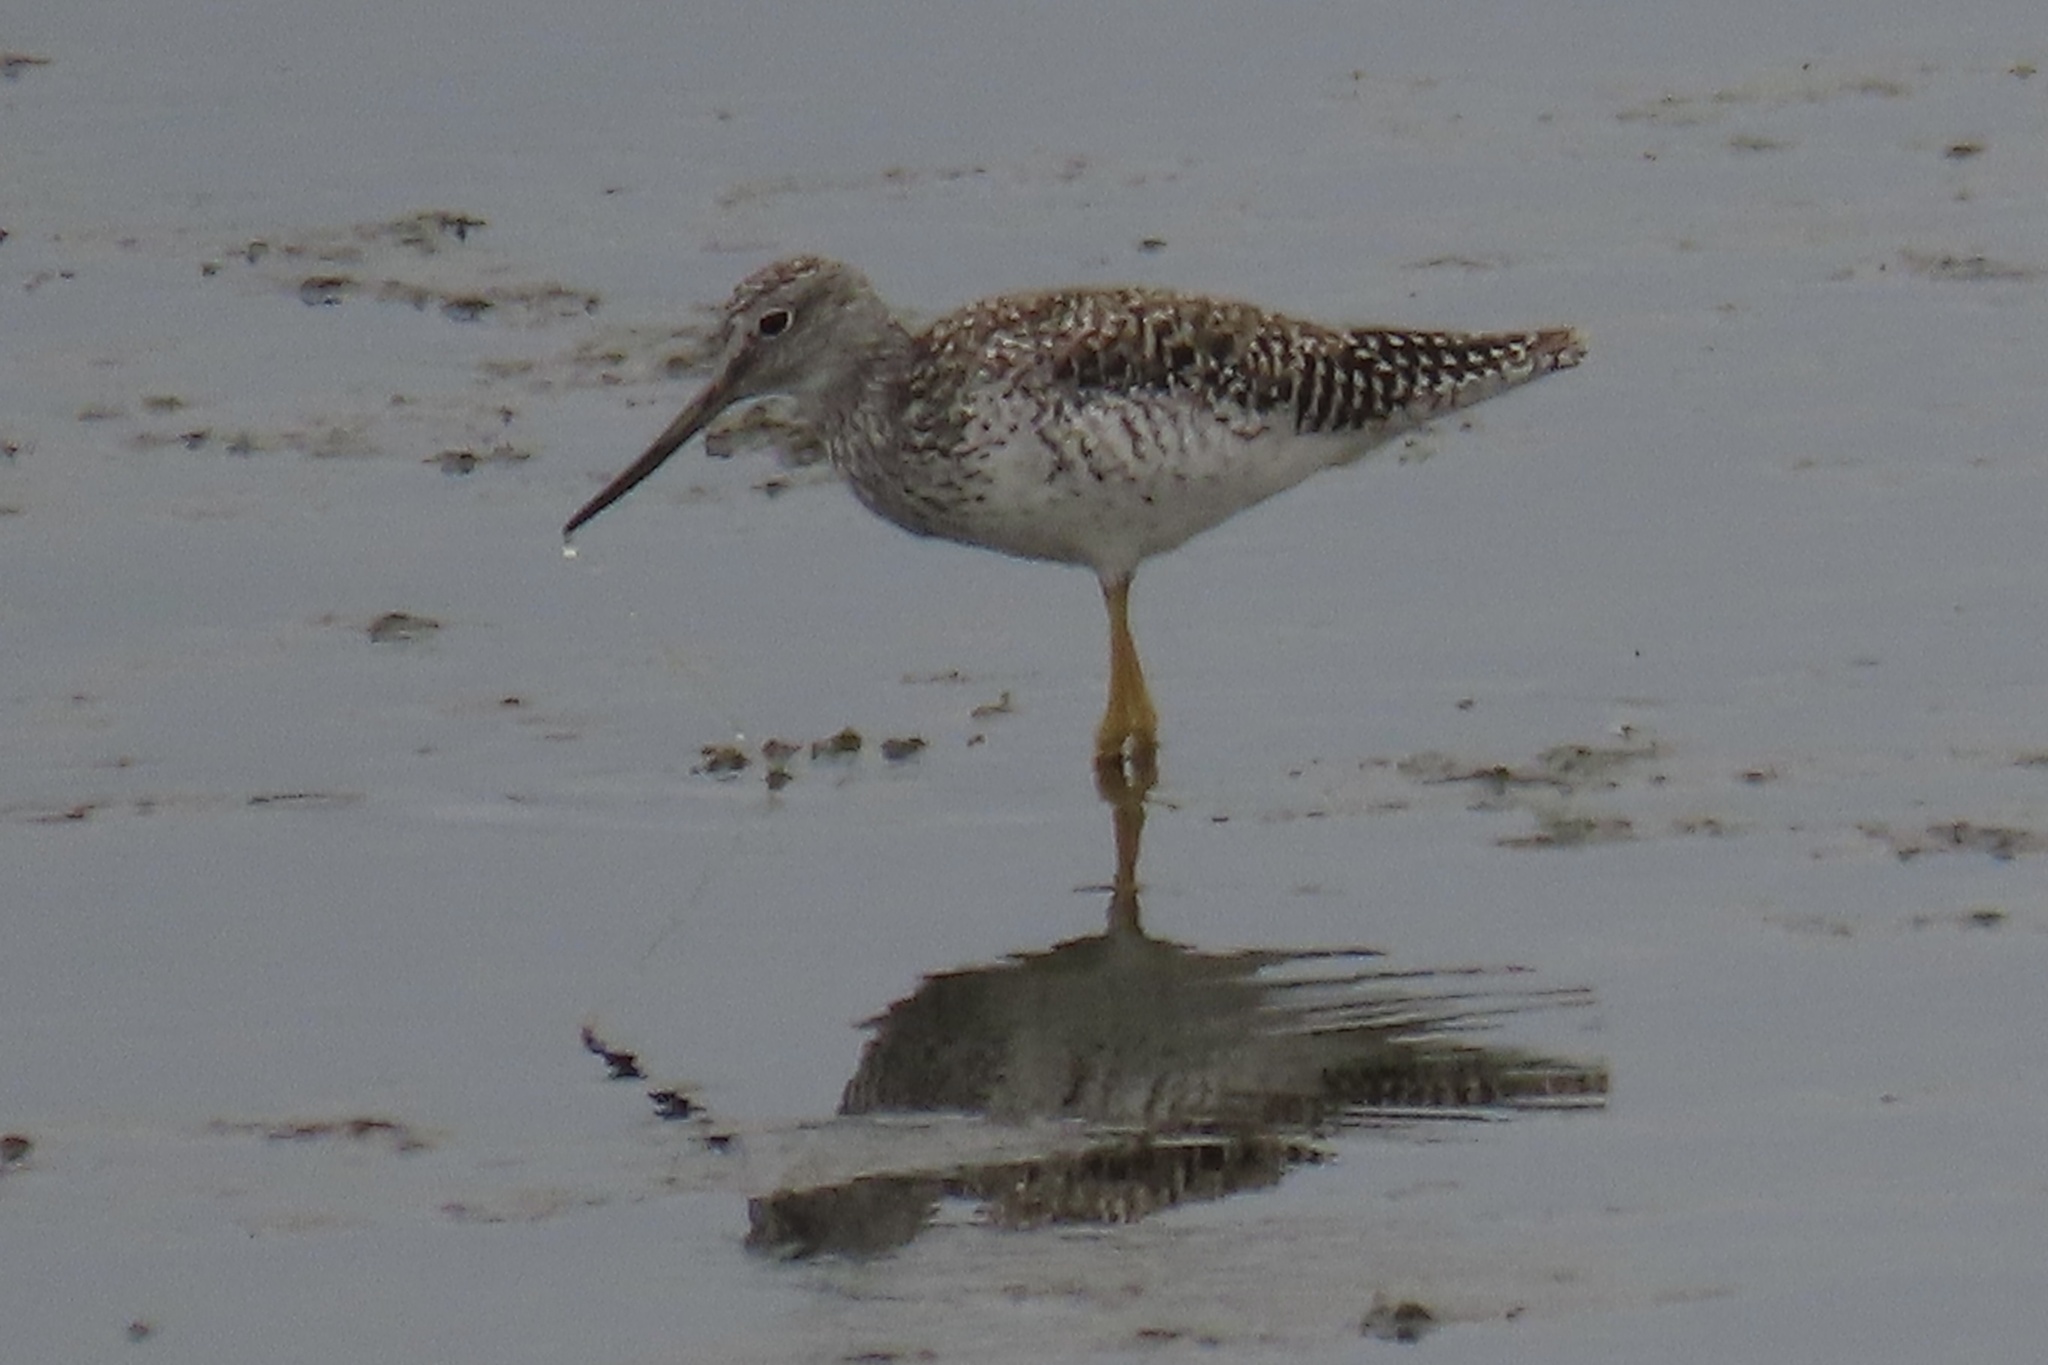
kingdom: Animalia
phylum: Chordata
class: Aves
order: Charadriiformes
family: Scolopacidae
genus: Tringa
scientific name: Tringa melanoleuca
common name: Greater yellowlegs
